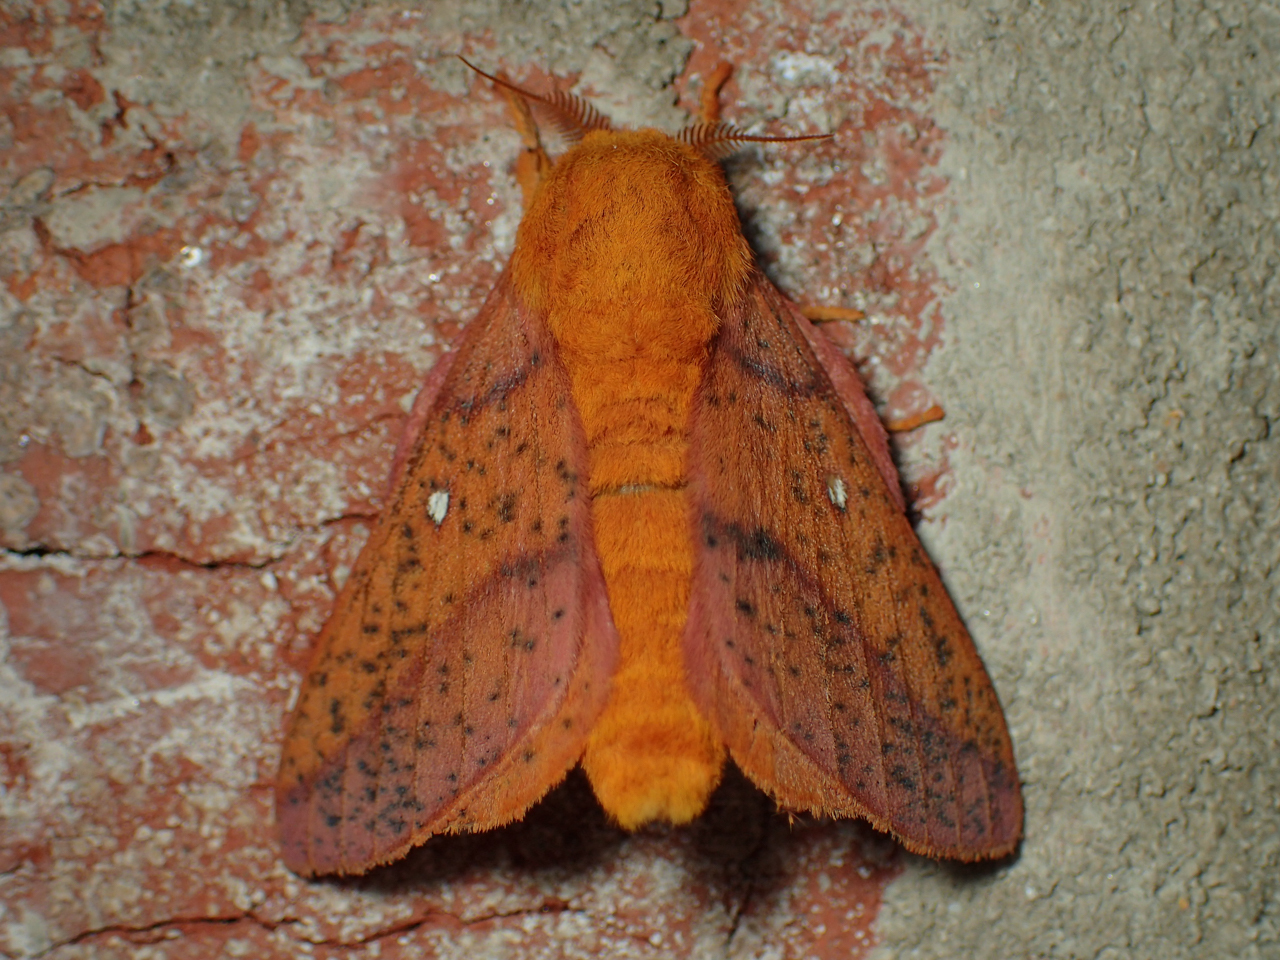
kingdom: Animalia
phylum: Arthropoda
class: Insecta
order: Lepidoptera
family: Saturniidae
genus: Anisota
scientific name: Anisota stigma
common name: Spiny oakworm moth
